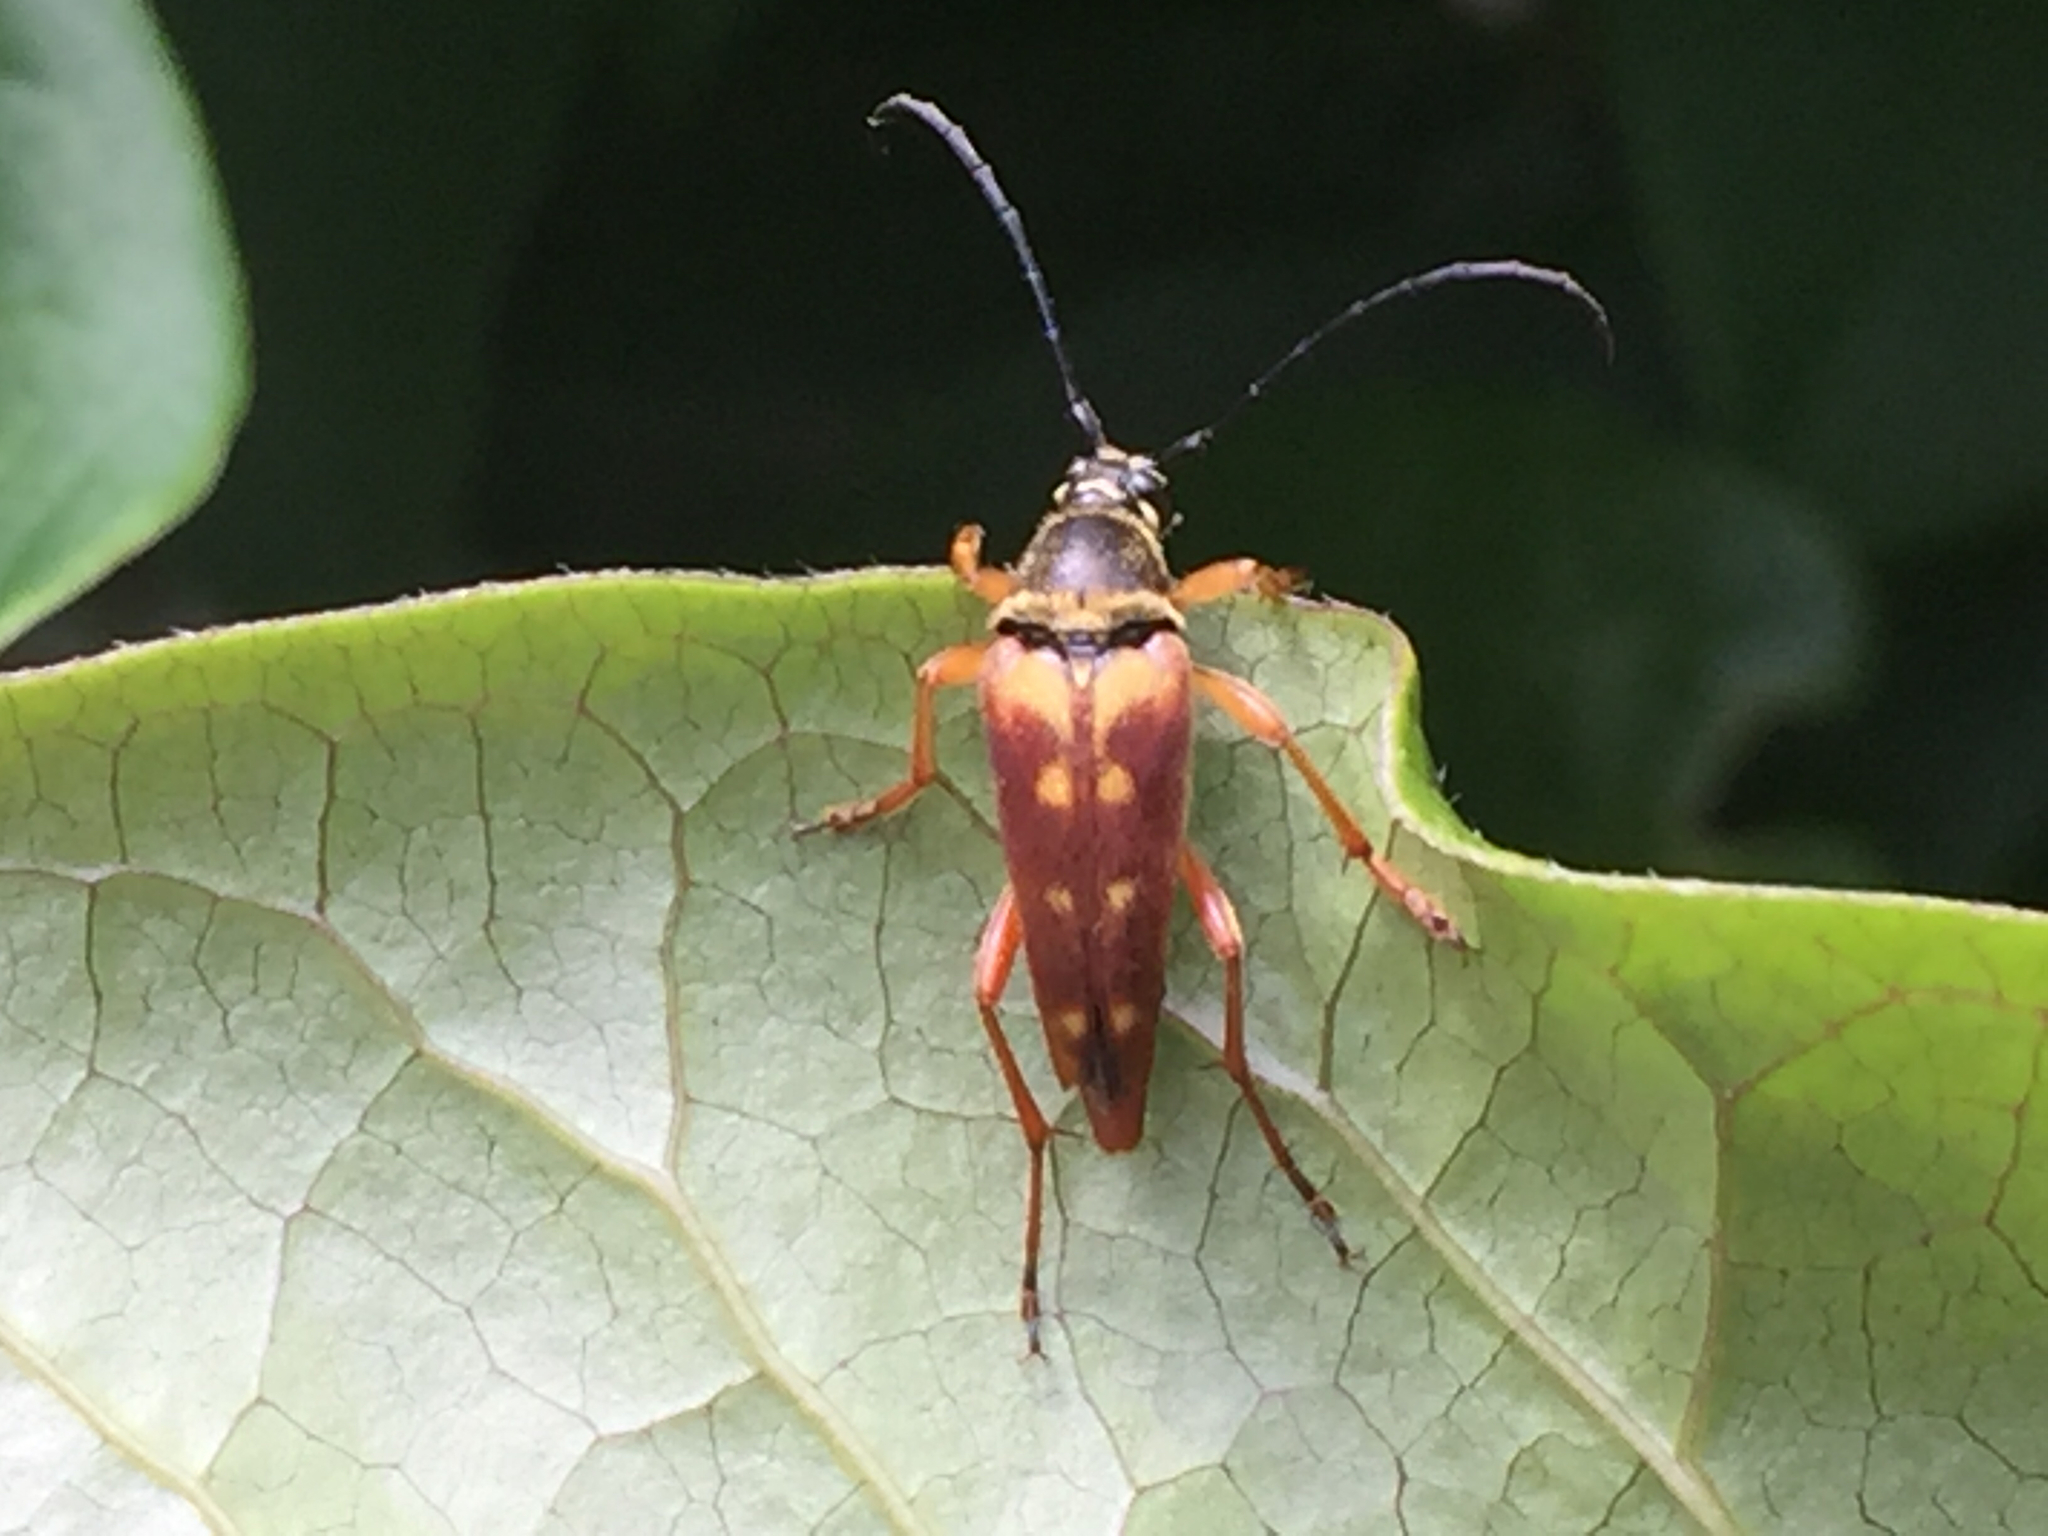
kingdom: Animalia
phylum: Arthropoda
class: Insecta
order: Coleoptera
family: Cerambycidae
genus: Typocerus
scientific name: Typocerus velutinus
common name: Banded longhorn beetle
